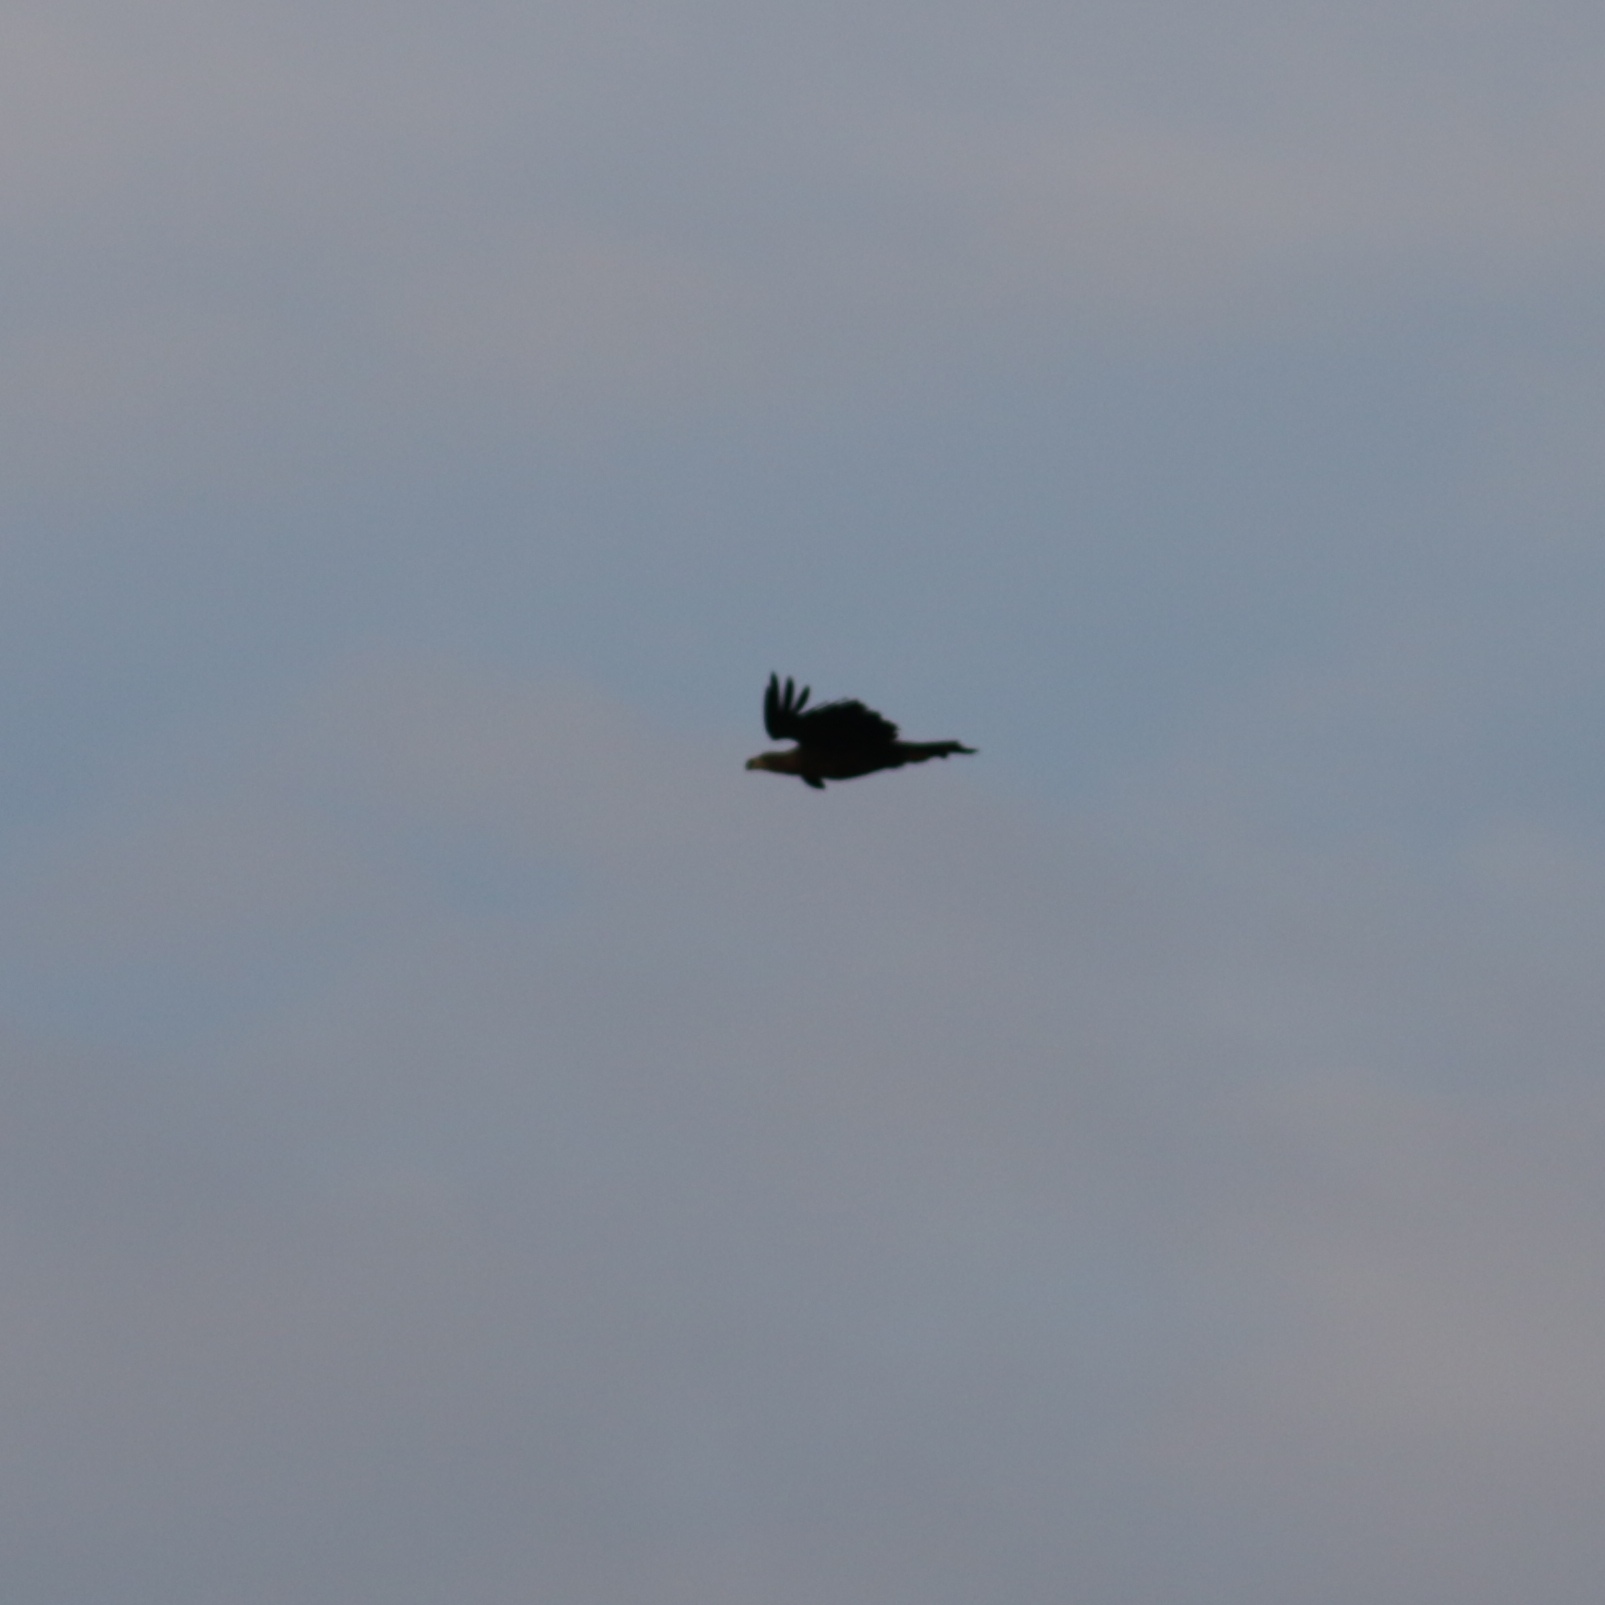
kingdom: Animalia
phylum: Chordata
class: Aves
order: Accipitriformes
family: Accipitridae
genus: Haliaeetus
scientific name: Haliaeetus albicilla
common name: White-tailed eagle
